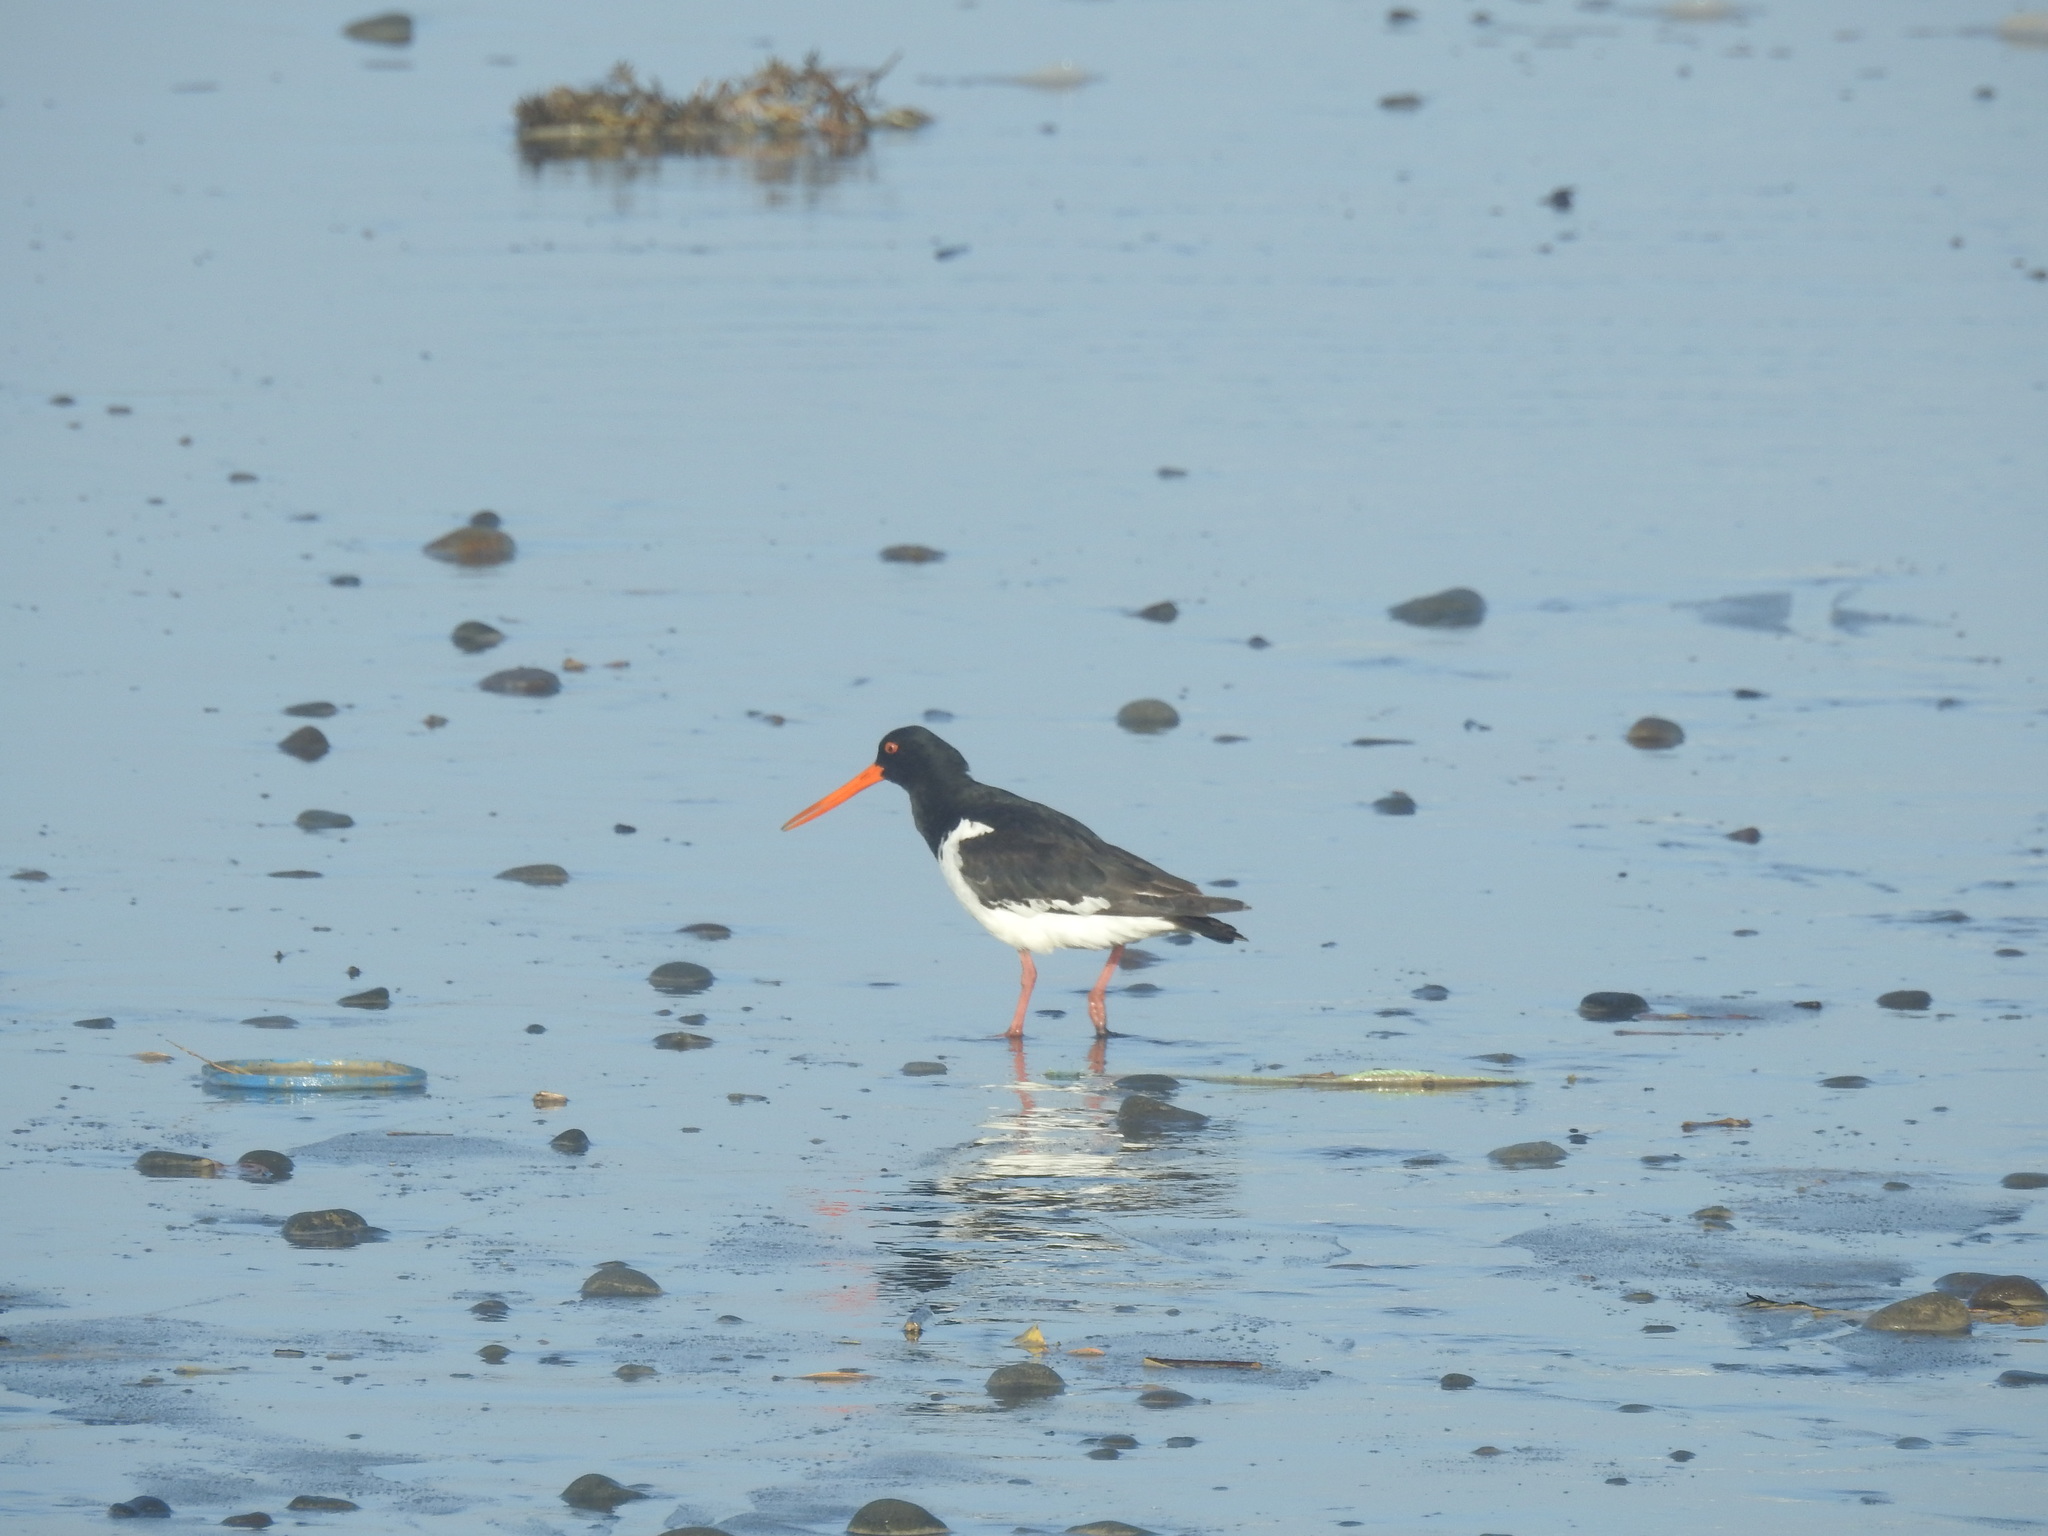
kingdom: Animalia
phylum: Chordata
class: Aves
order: Charadriiformes
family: Haematopodidae
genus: Haematopus
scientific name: Haematopus finschi
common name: South island oystercatcher
